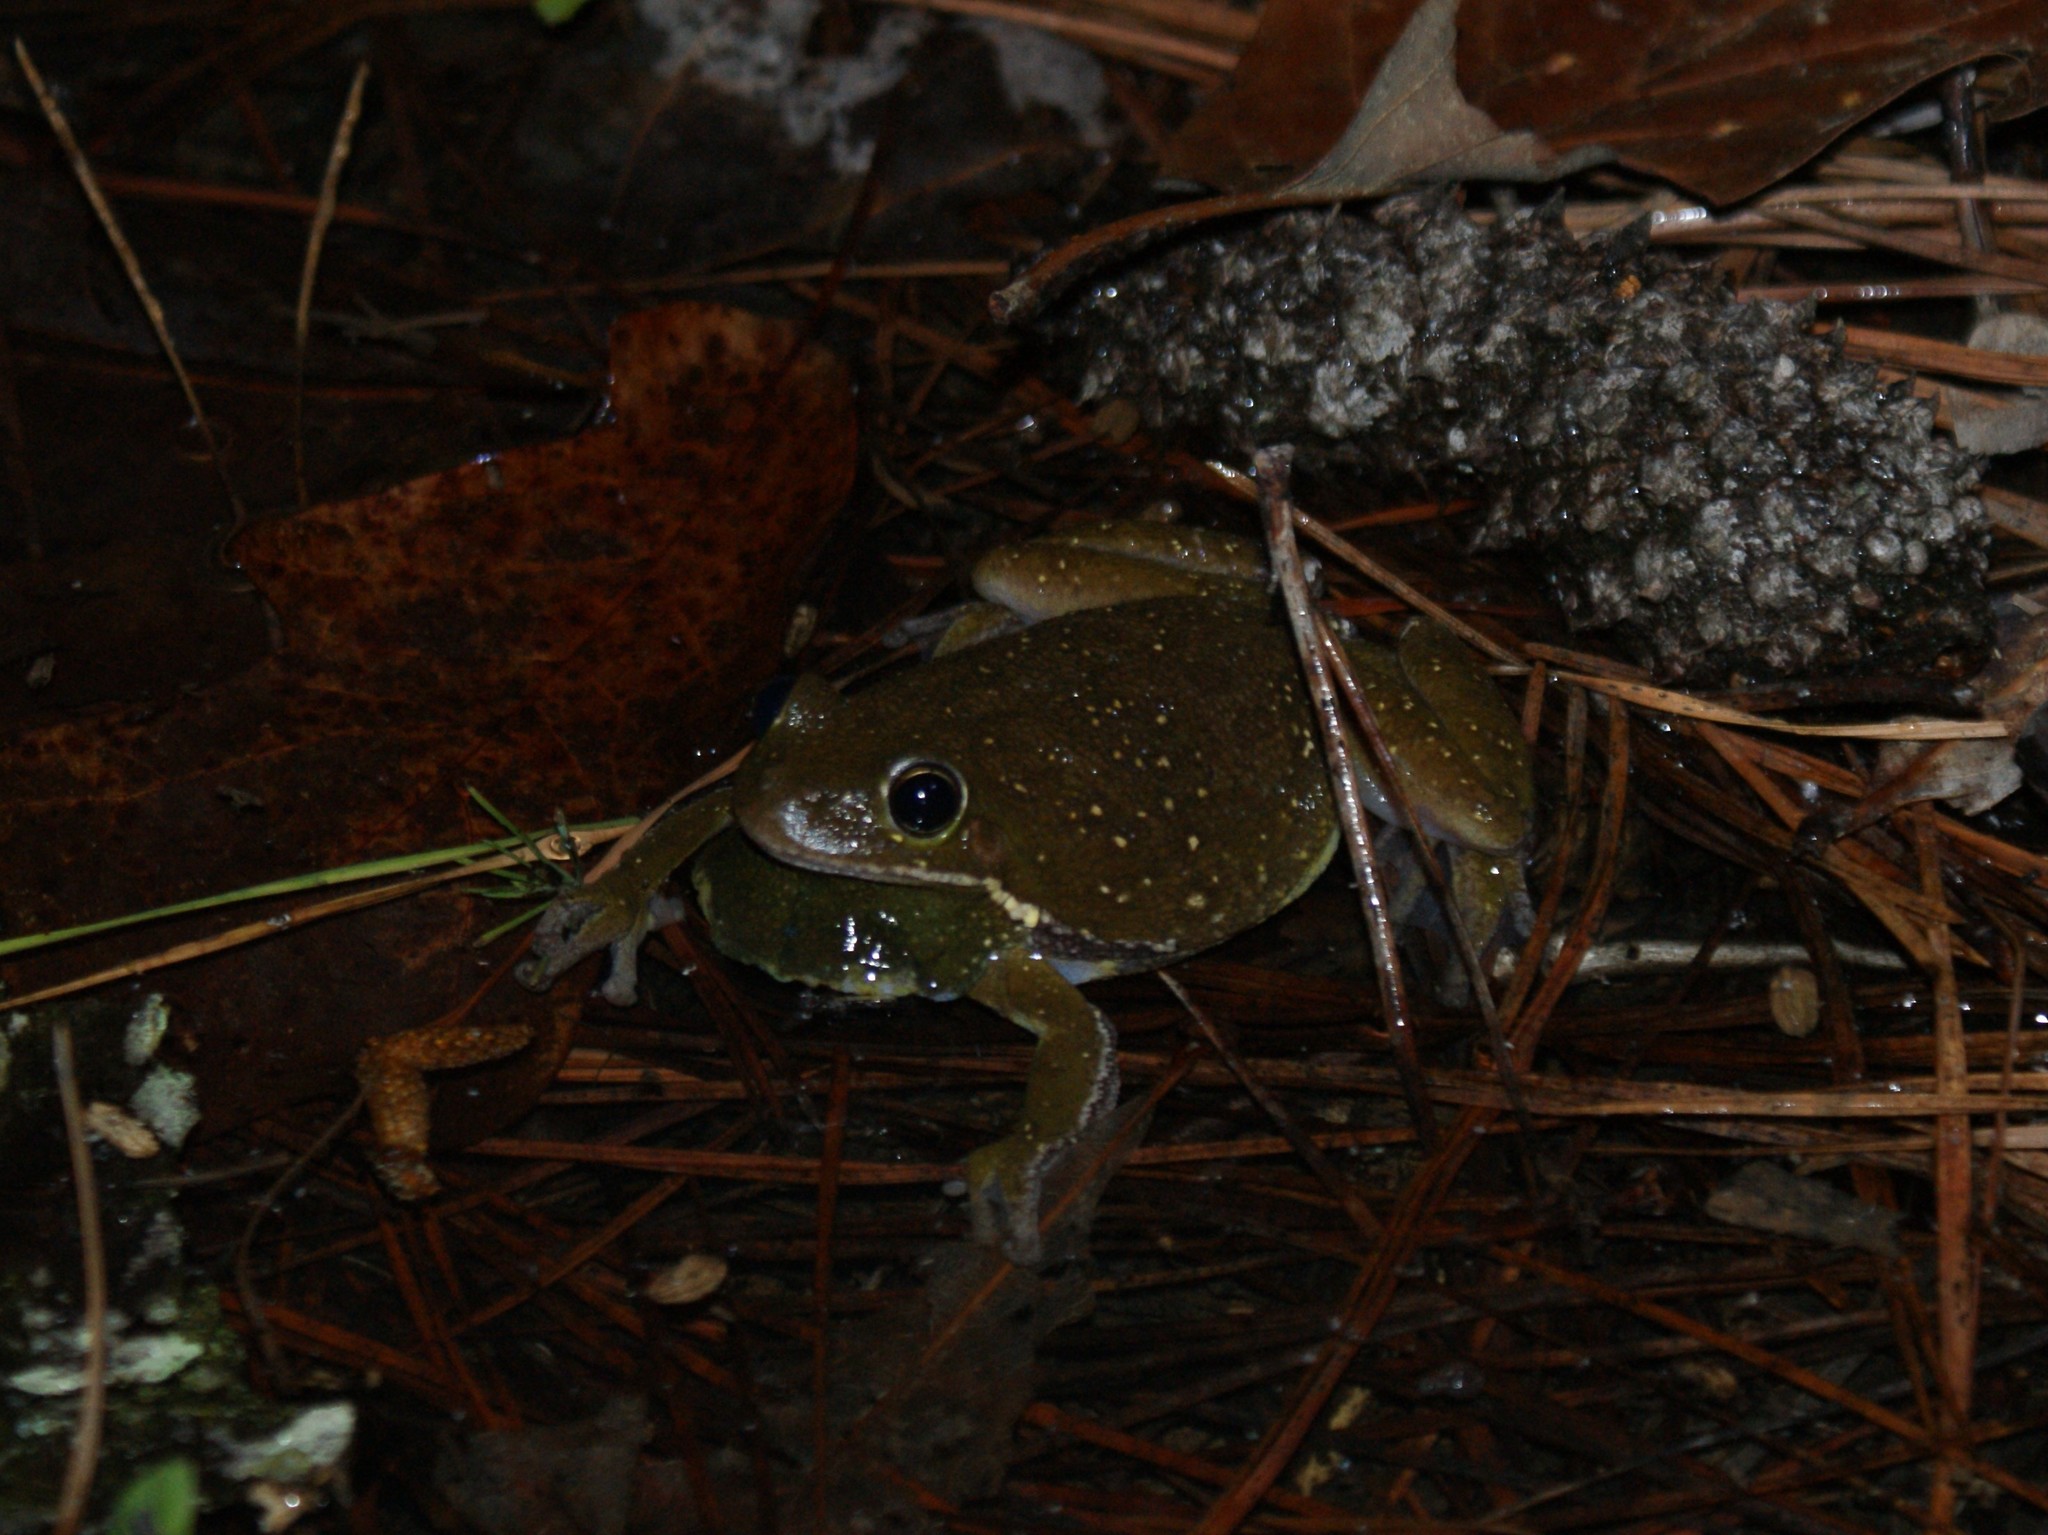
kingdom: Animalia
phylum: Chordata
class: Amphibia
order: Anura
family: Hylidae
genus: Dryophytes
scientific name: Dryophytes gratiosus
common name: Barking treefrog
